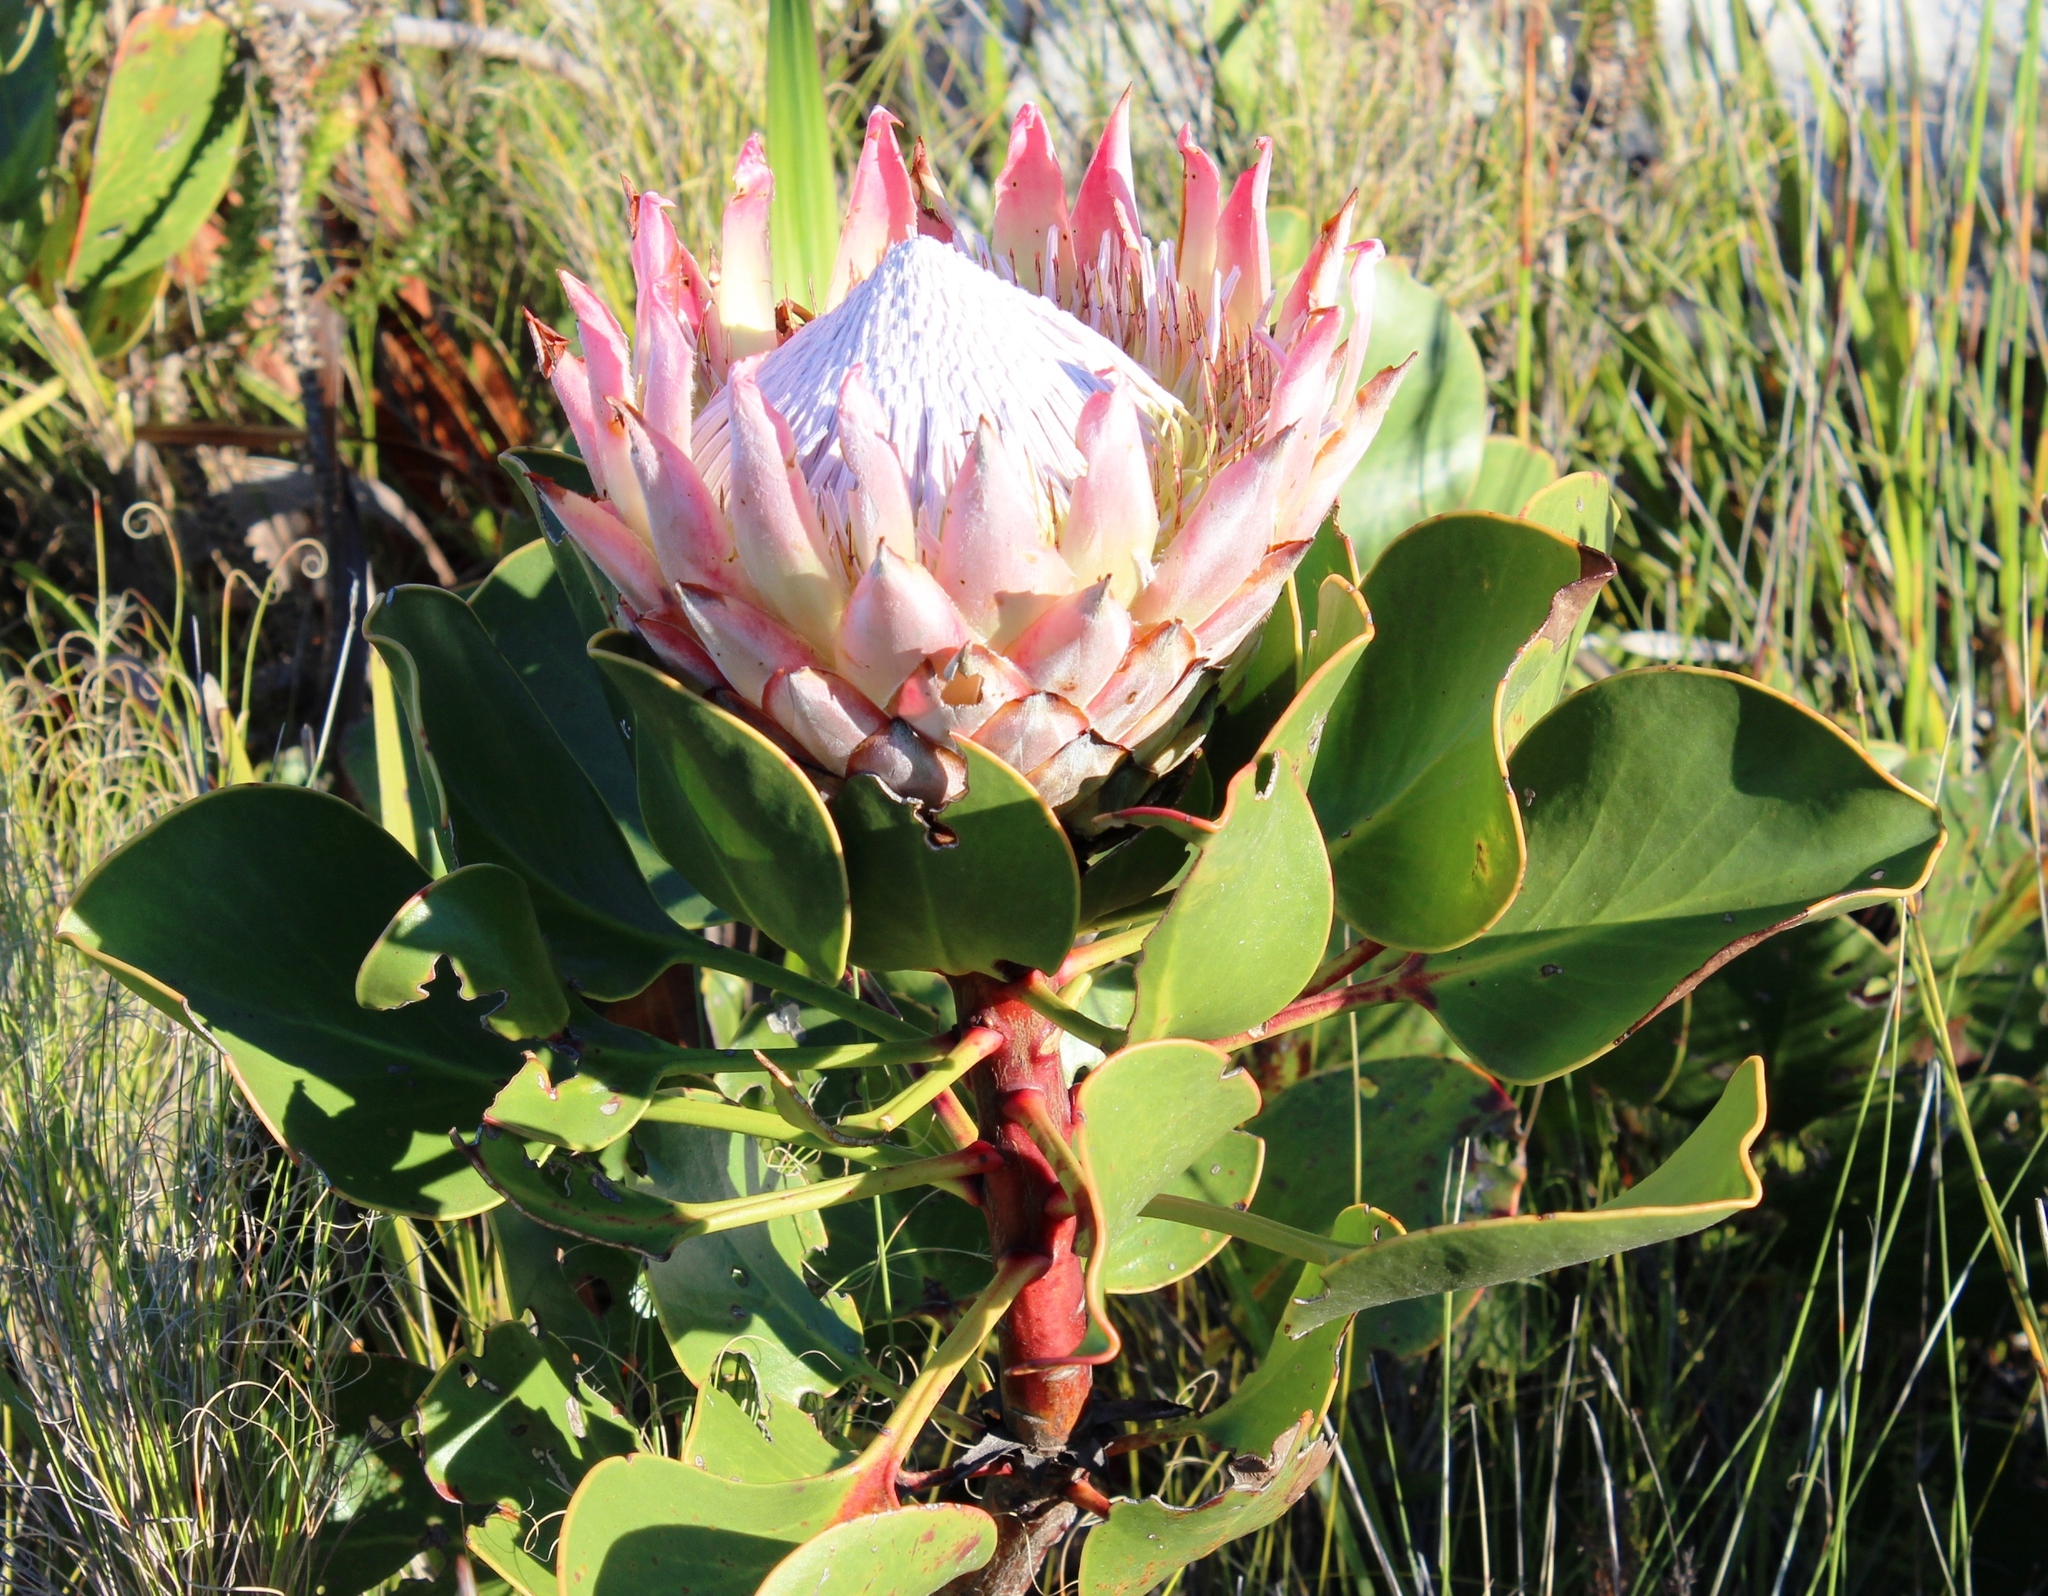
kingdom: Plantae
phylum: Tracheophyta
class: Magnoliopsida
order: Proteales
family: Proteaceae
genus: Protea
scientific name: Protea cynaroides
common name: King protea
